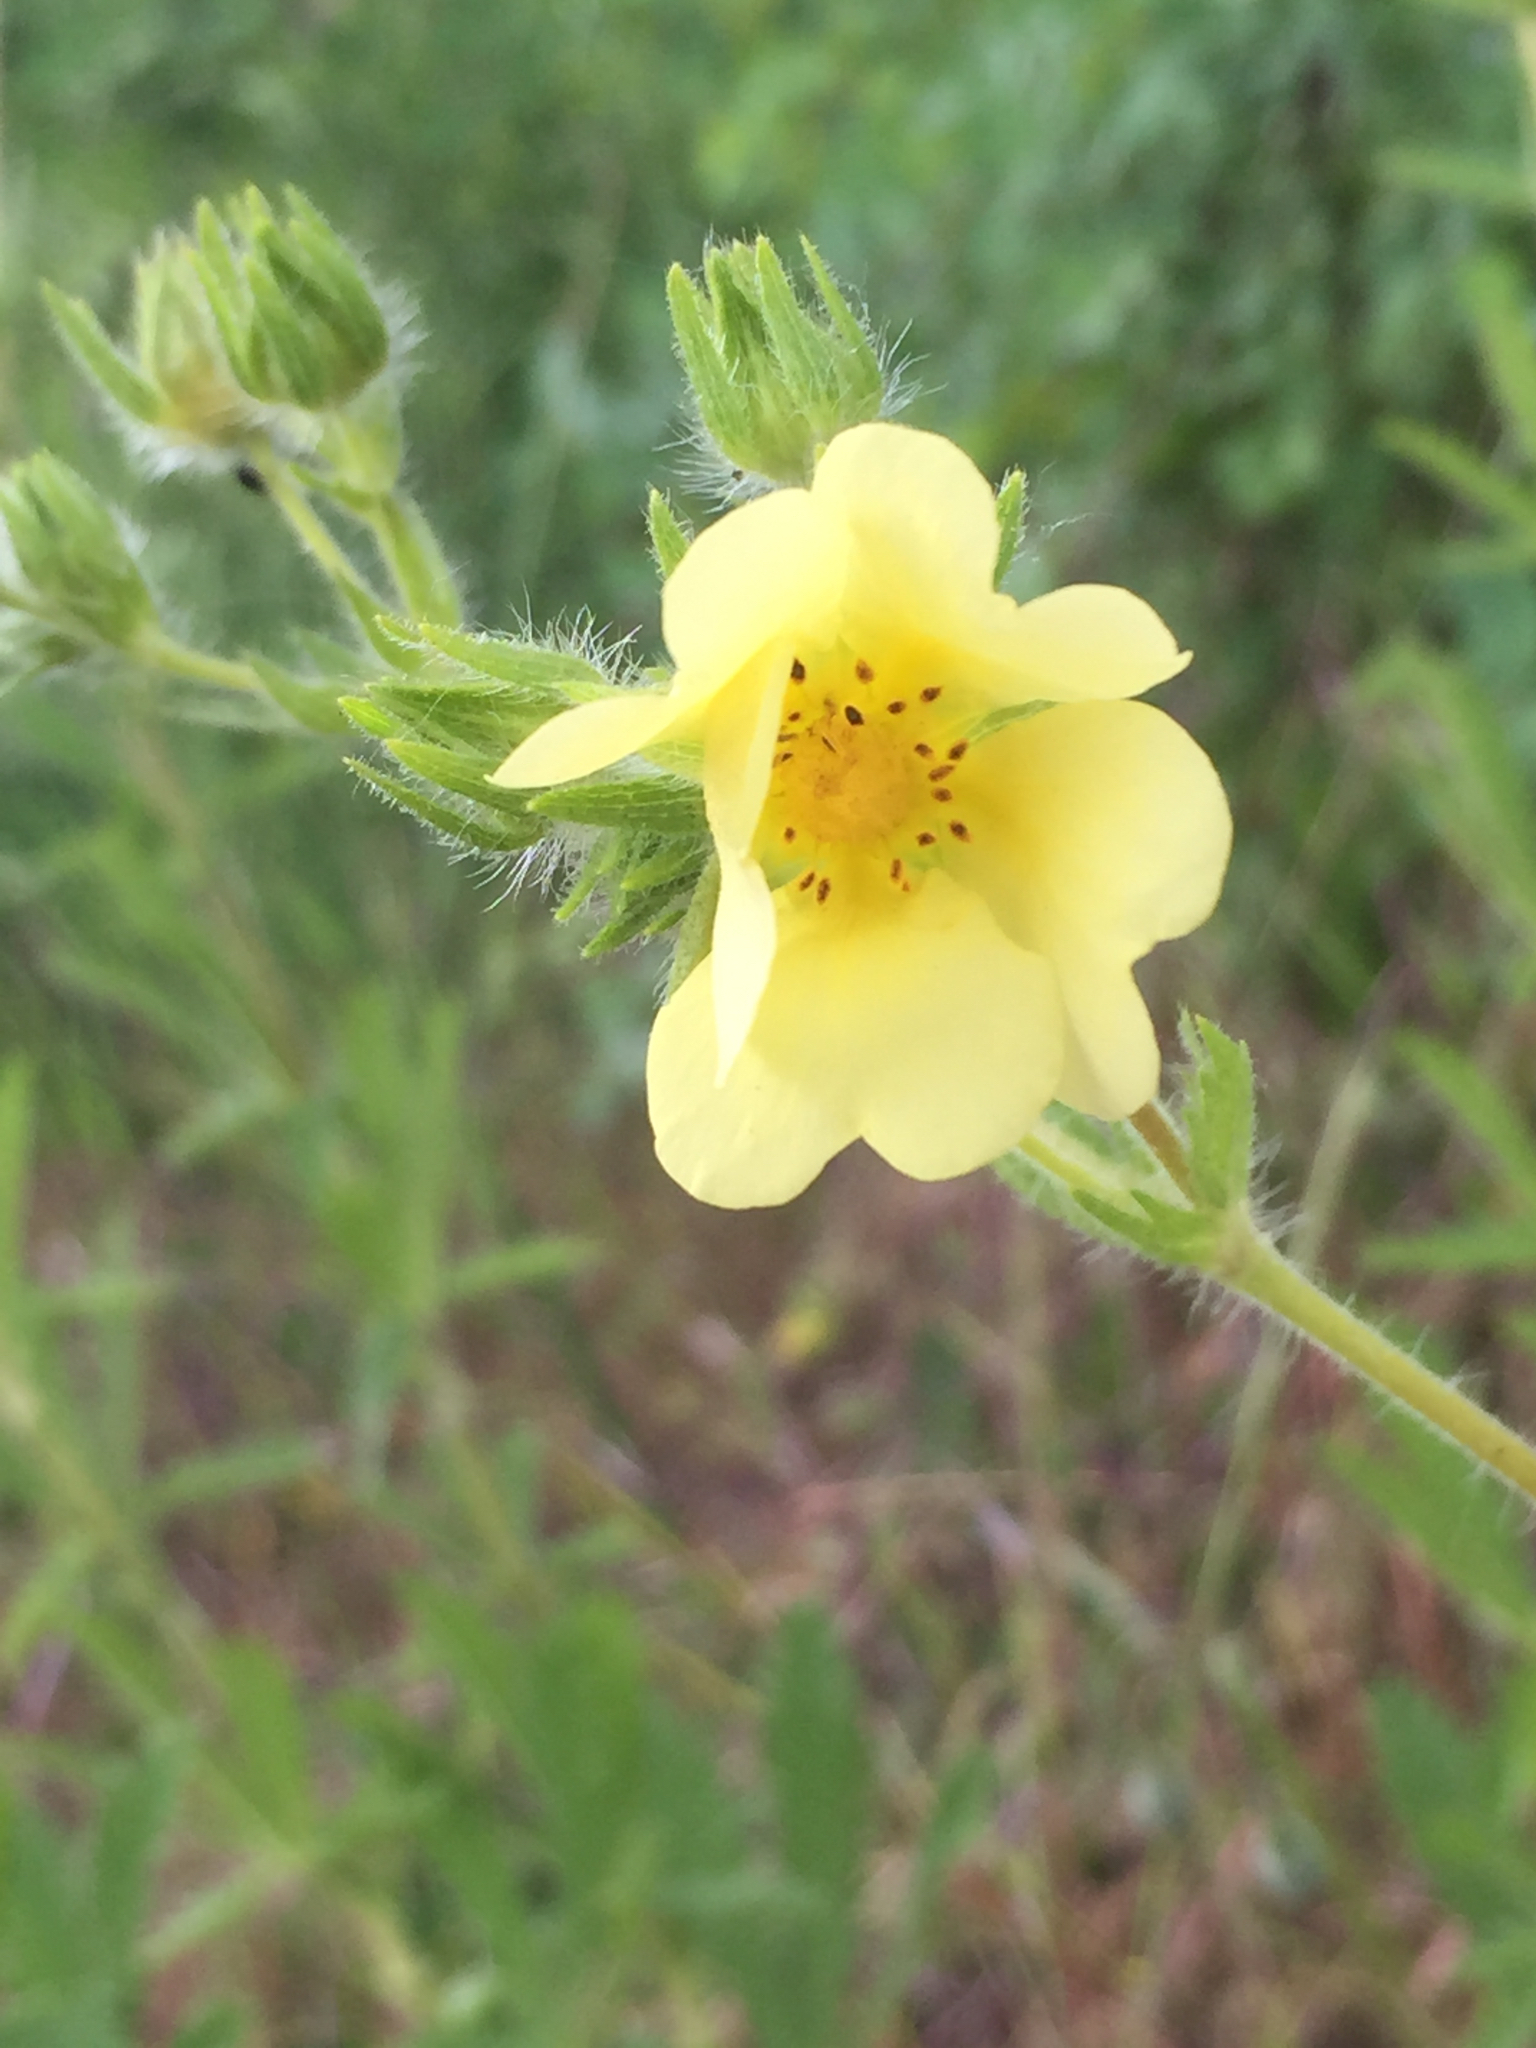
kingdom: Plantae
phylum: Tracheophyta
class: Magnoliopsida
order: Rosales
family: Rosaceae
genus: Potentilla
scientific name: Potentilla recta
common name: Sulphur cinquefoil
